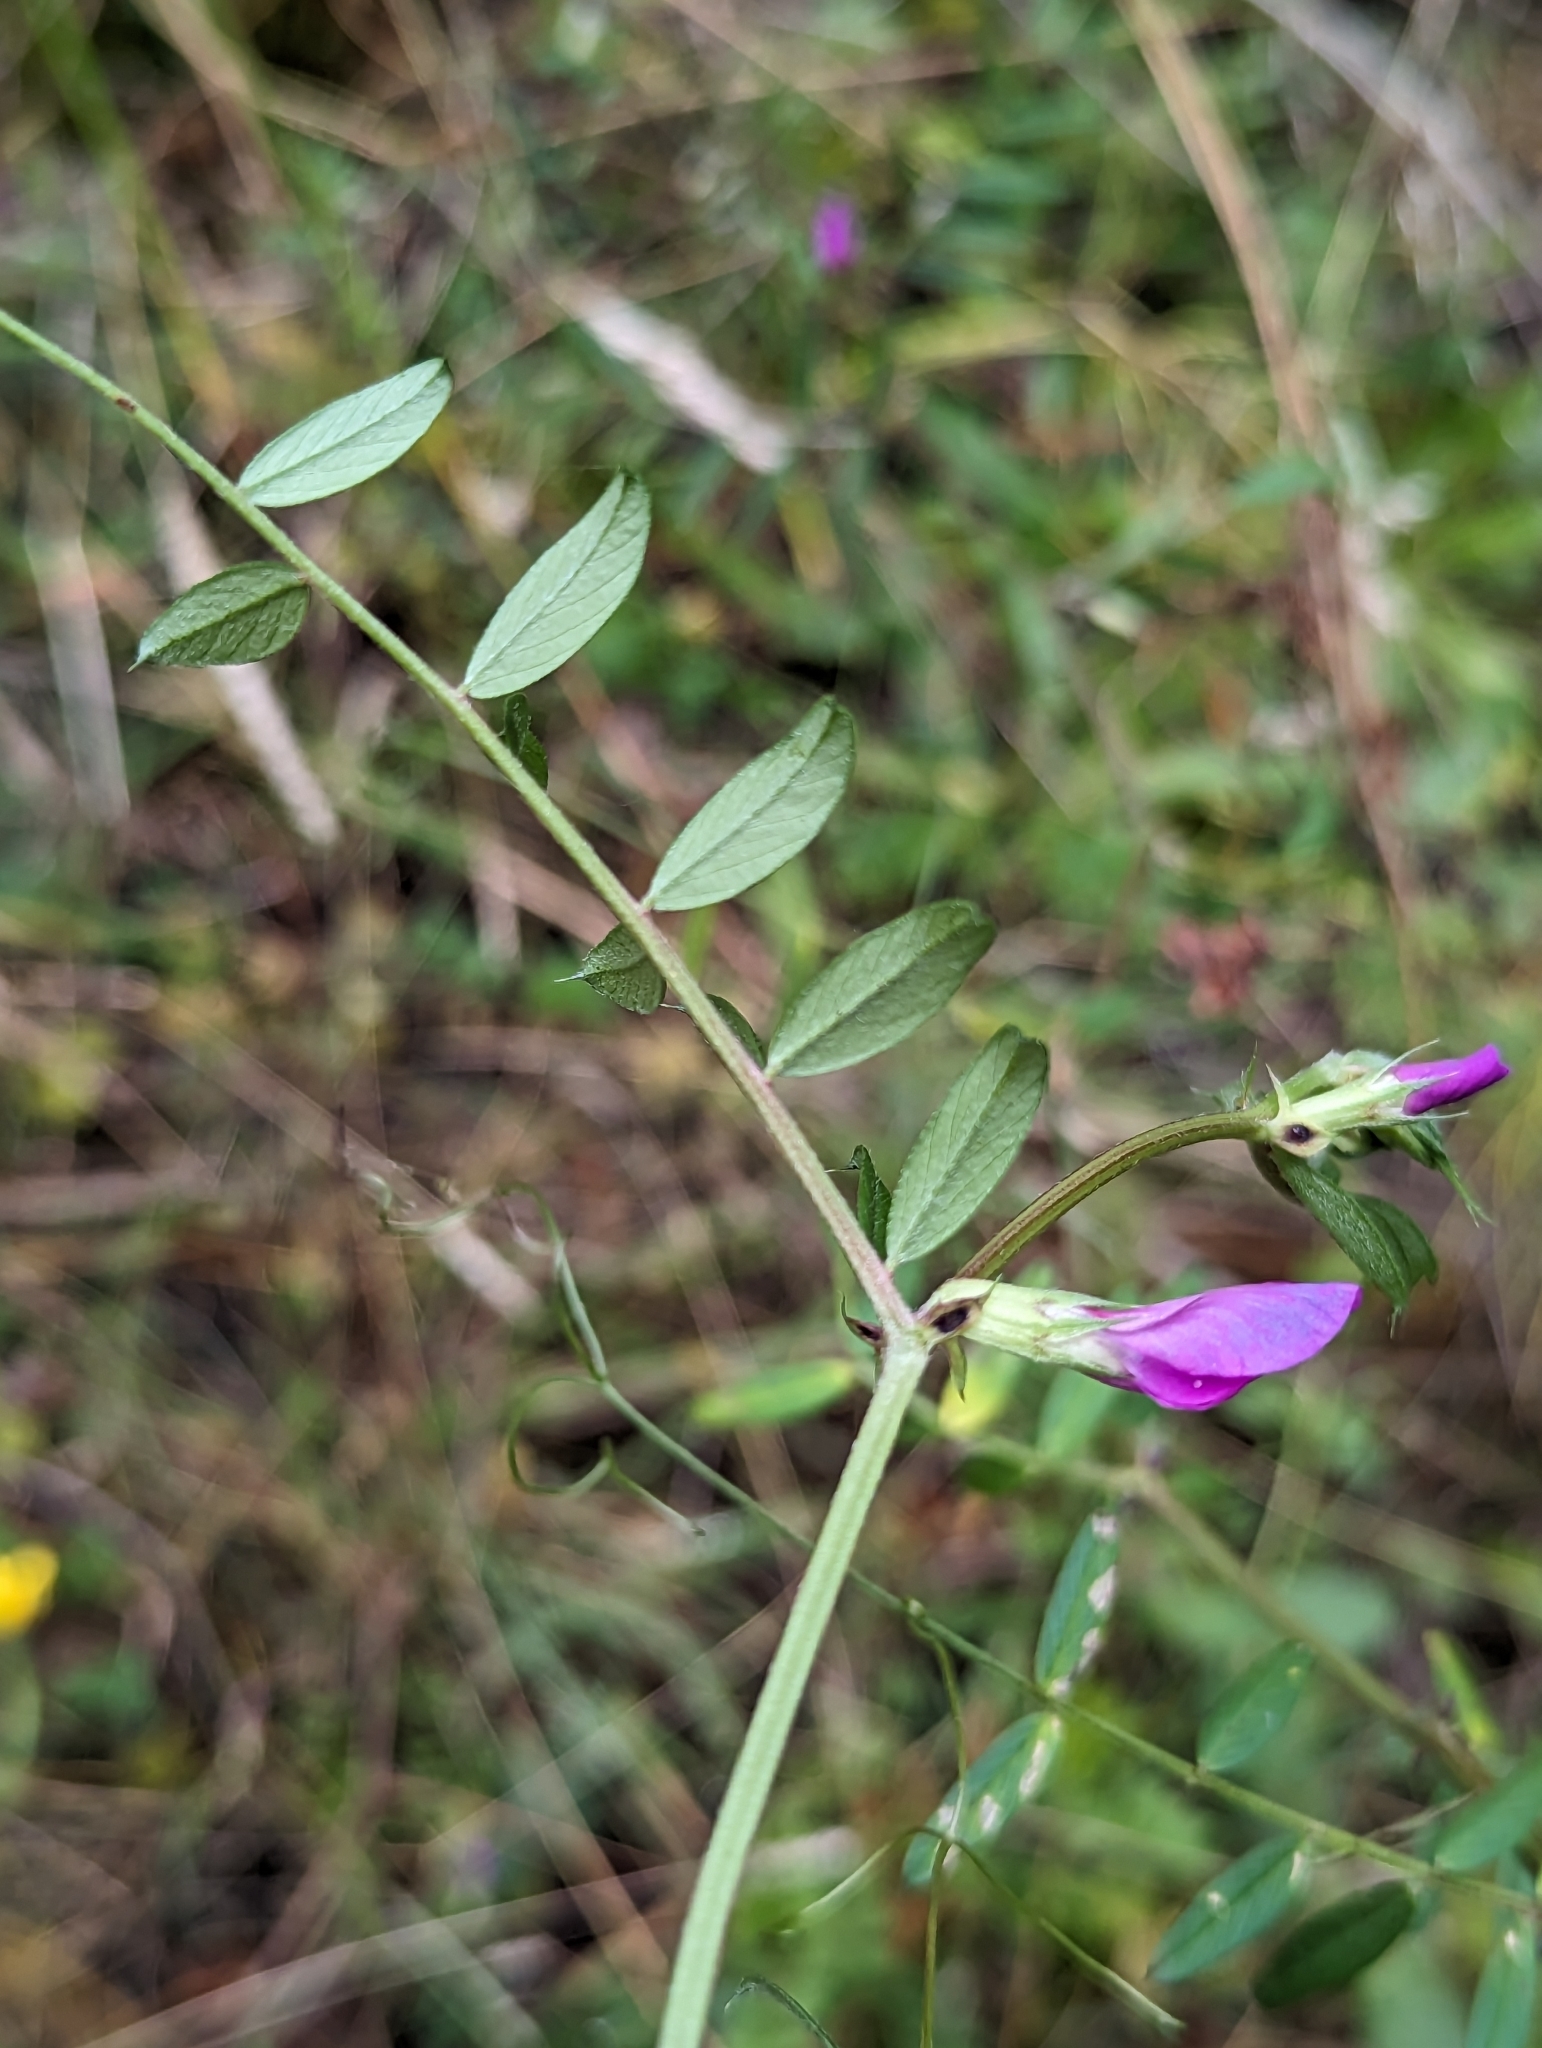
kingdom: Plantae
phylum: Tracheophyta
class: Magnoliopsida
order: Fabales
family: Fabaceae
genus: Vicia
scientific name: Vicia sativa
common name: Garden vetch
